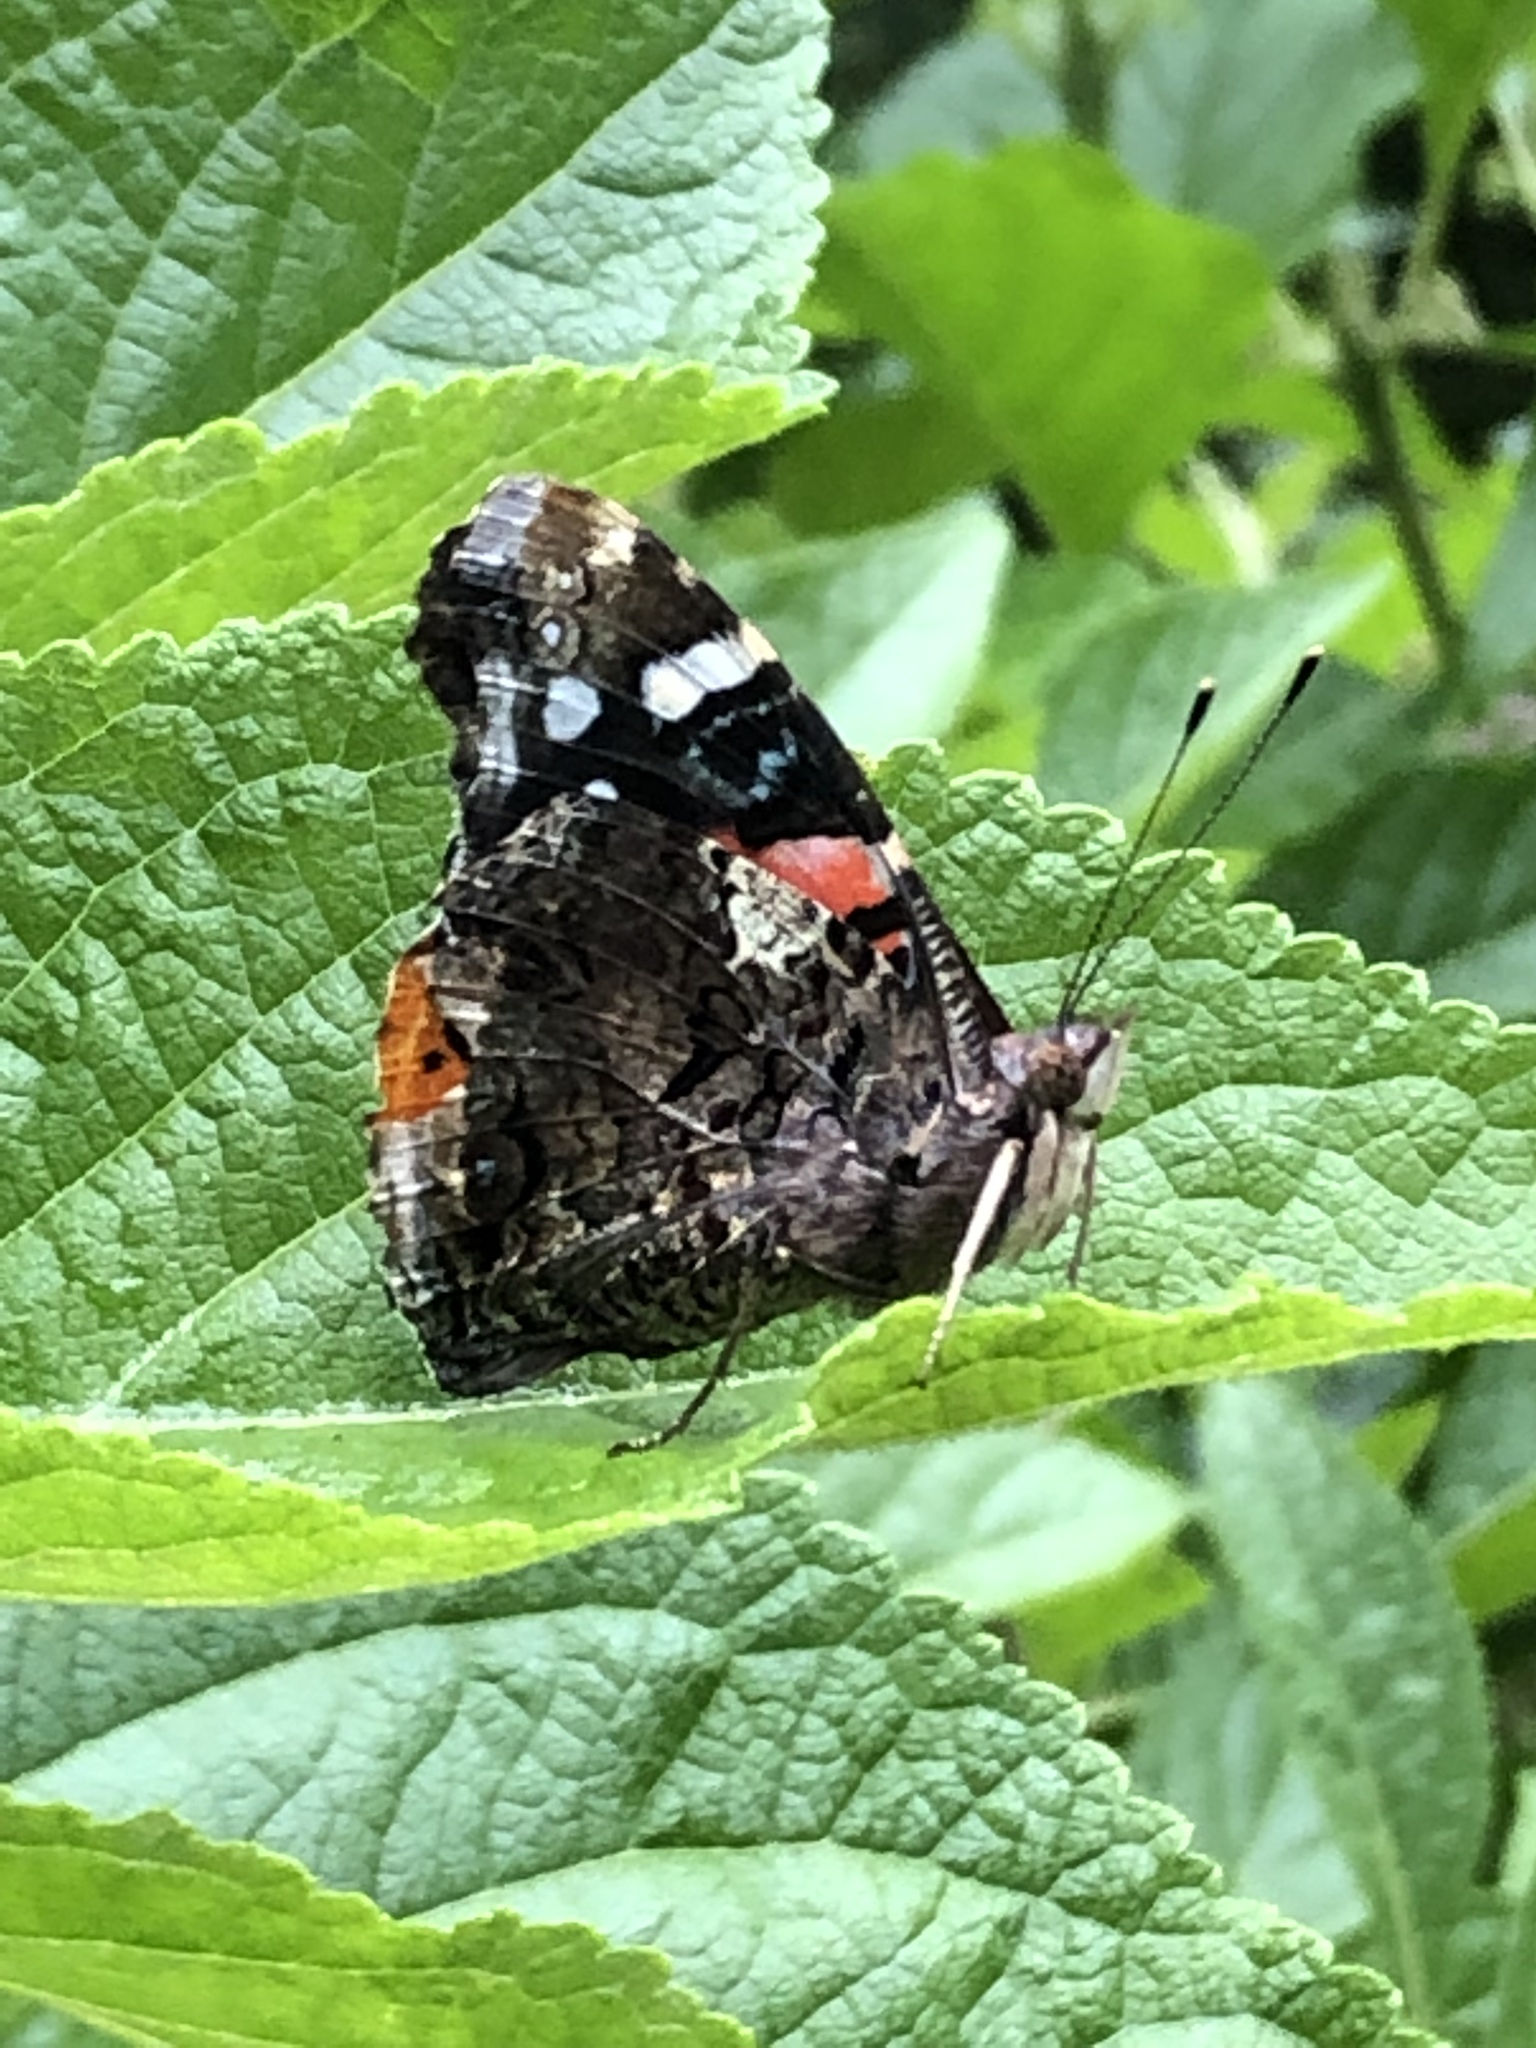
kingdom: Animalia
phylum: Arthropoda
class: Insecta
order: Lepidoptera
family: Nymphalidae
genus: Vanessa
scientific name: Vanessa atalanta
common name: Red admiral
